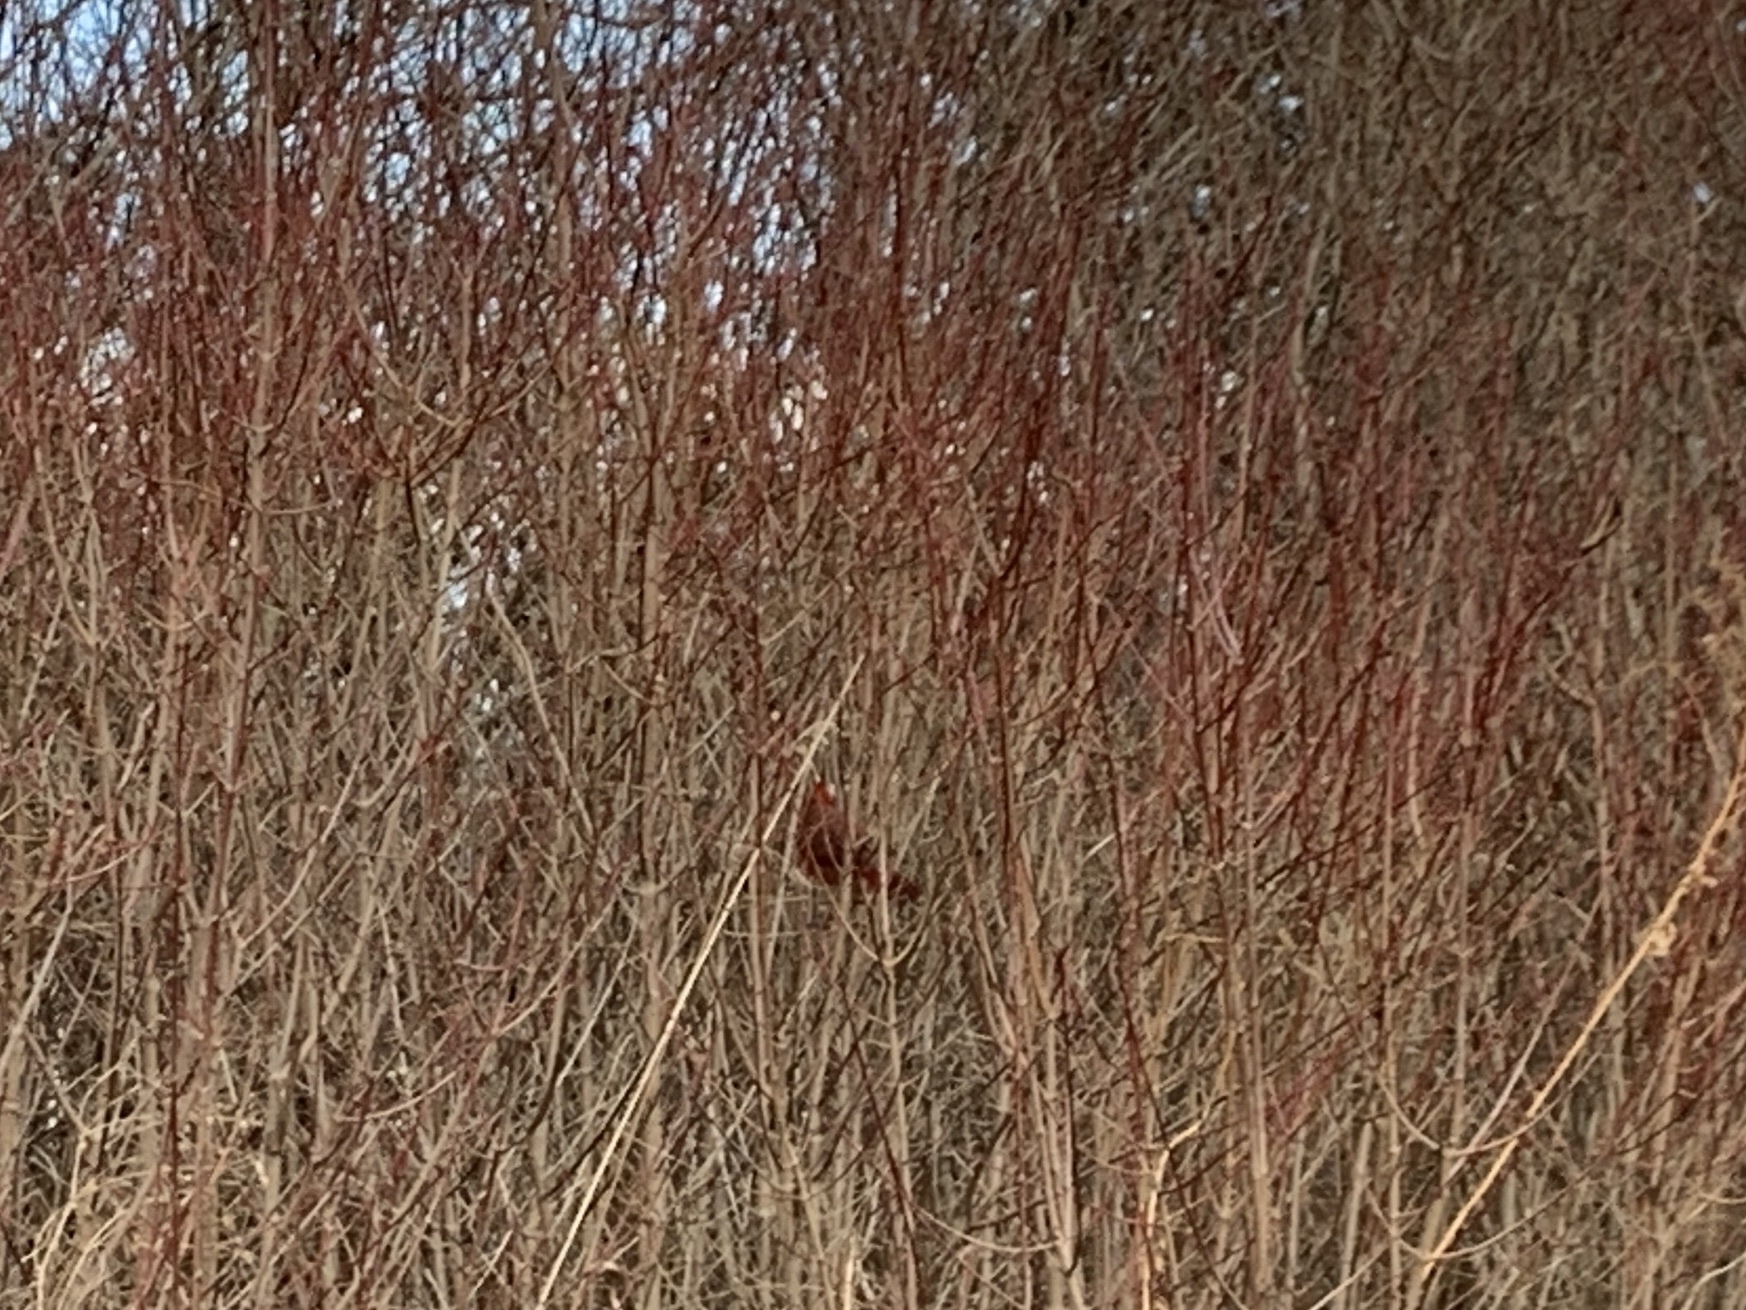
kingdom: Animalia
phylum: Chordata
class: Aves
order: Passeriformes
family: Cardinalidae
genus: Cardinalis
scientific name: Cardinalis cardinalis
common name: Northern cardinal
